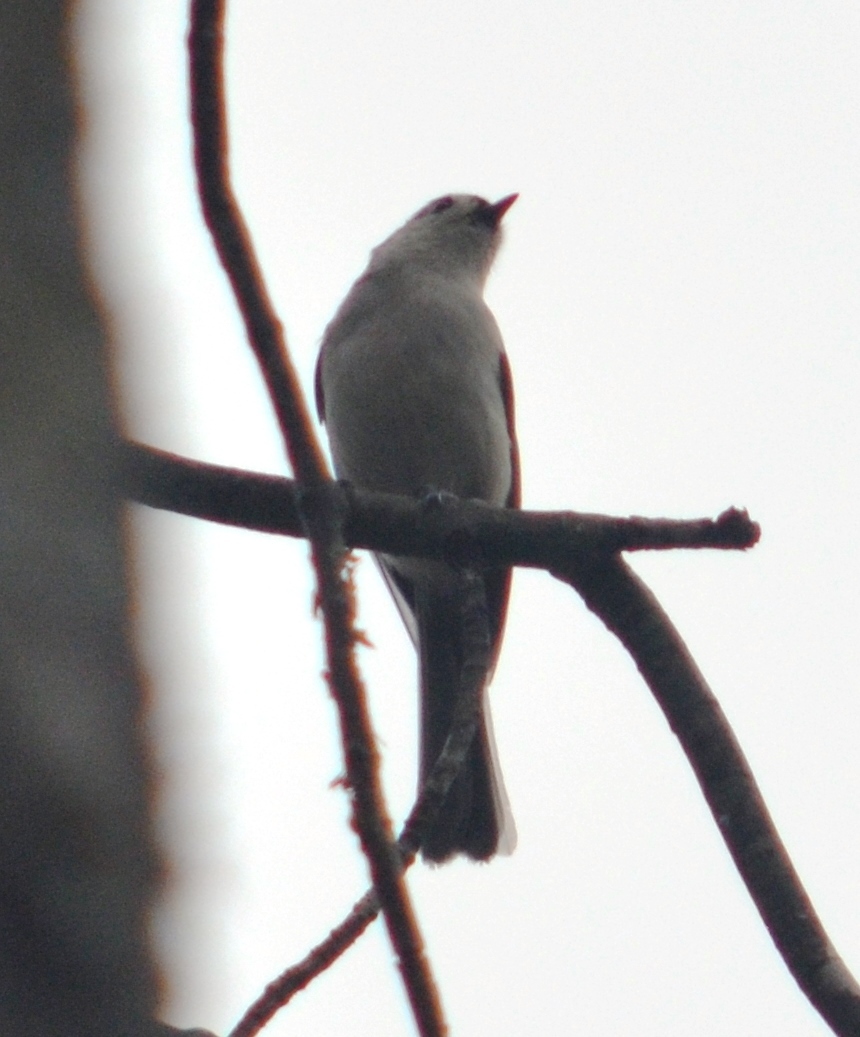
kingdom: Animalia
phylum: Chordata
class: Aves
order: Passeriformes
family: Paridae
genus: Baeolophus
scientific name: Baeolophus bicolor
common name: Tufted titmouse
